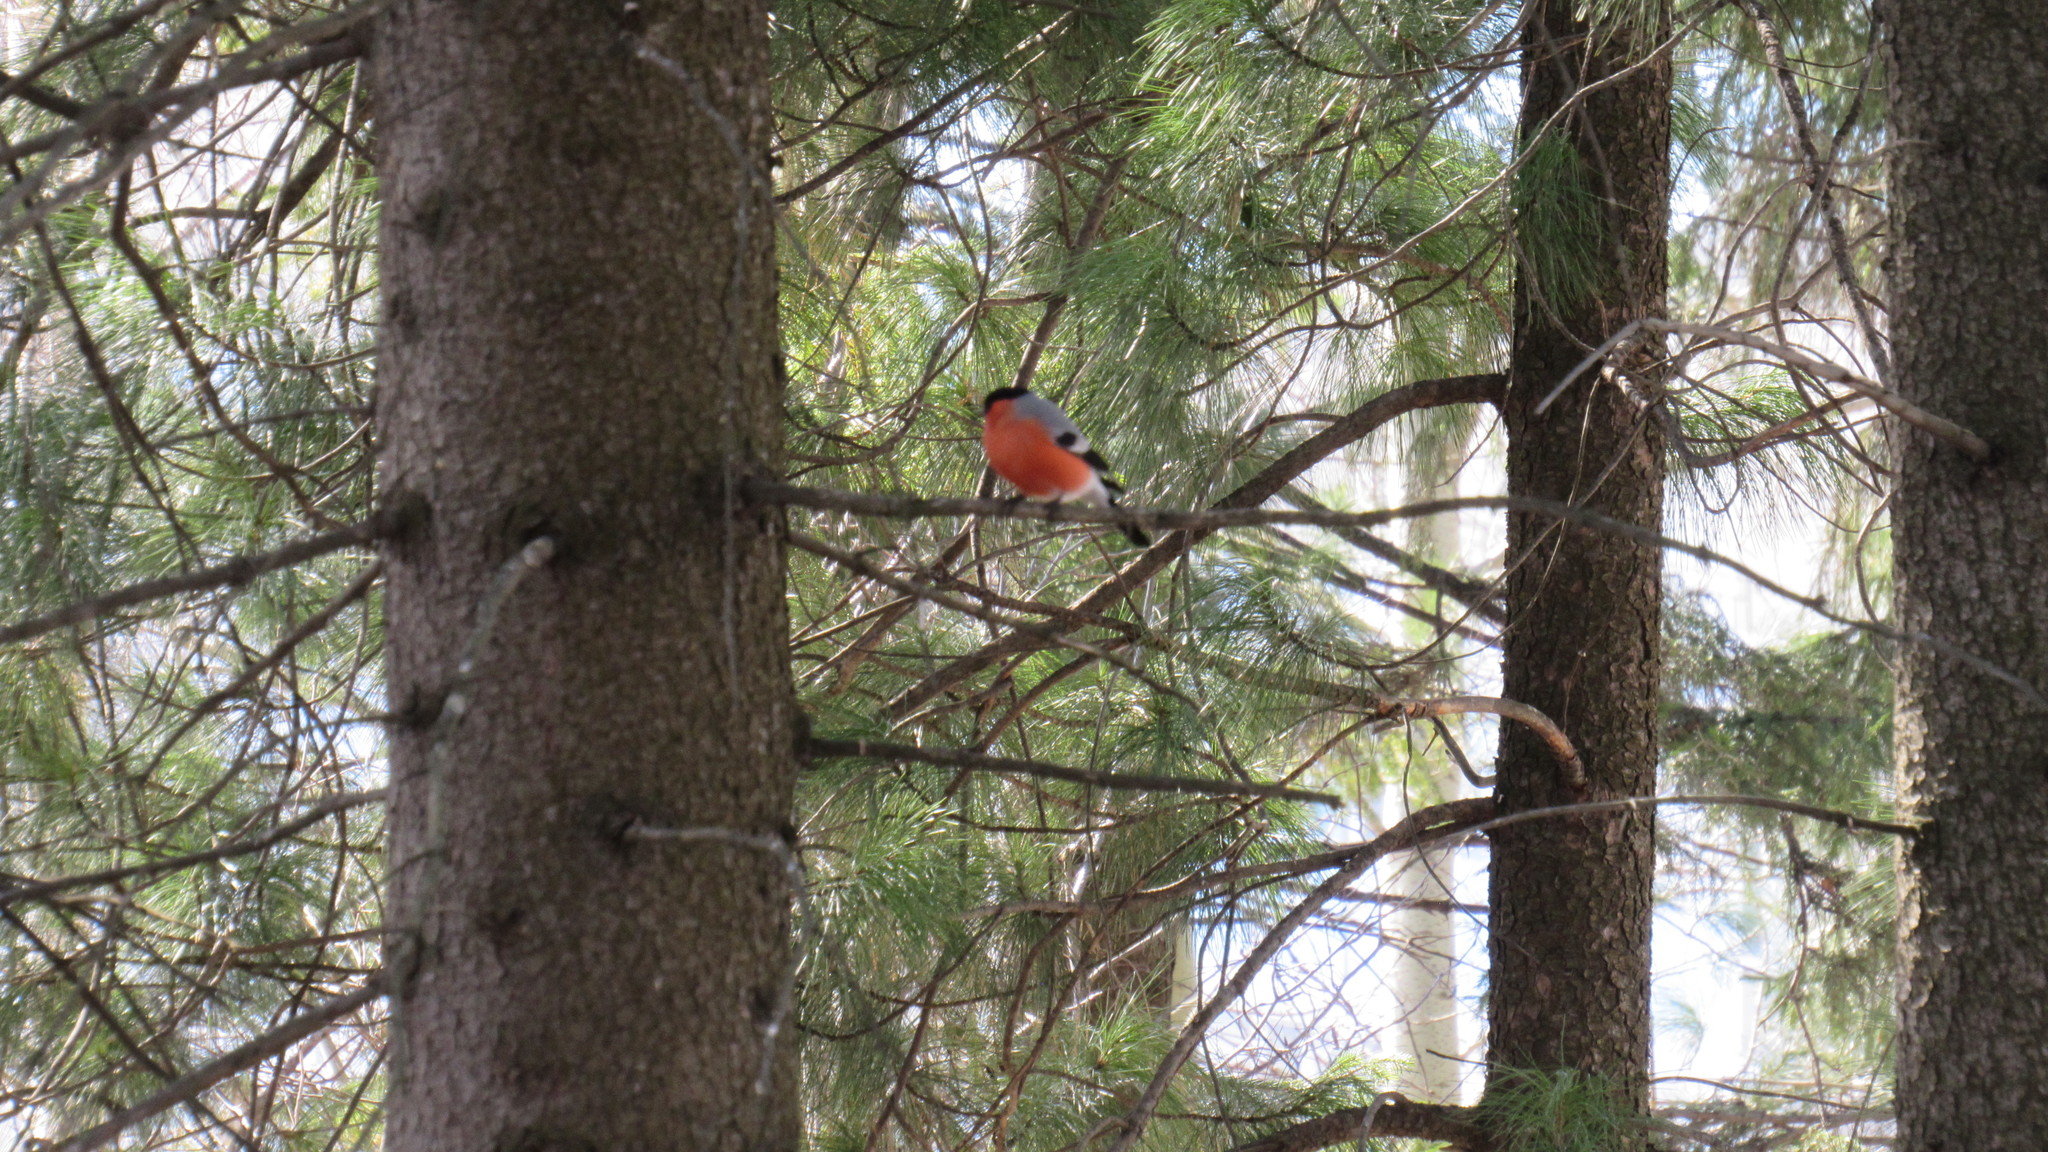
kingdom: Animalia
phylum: Chordata
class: Aves
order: Passeriformes
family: Fringillidae
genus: Pyrrhula
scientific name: Pyrrhula pyrrhula
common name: Eurasian bullfinch
